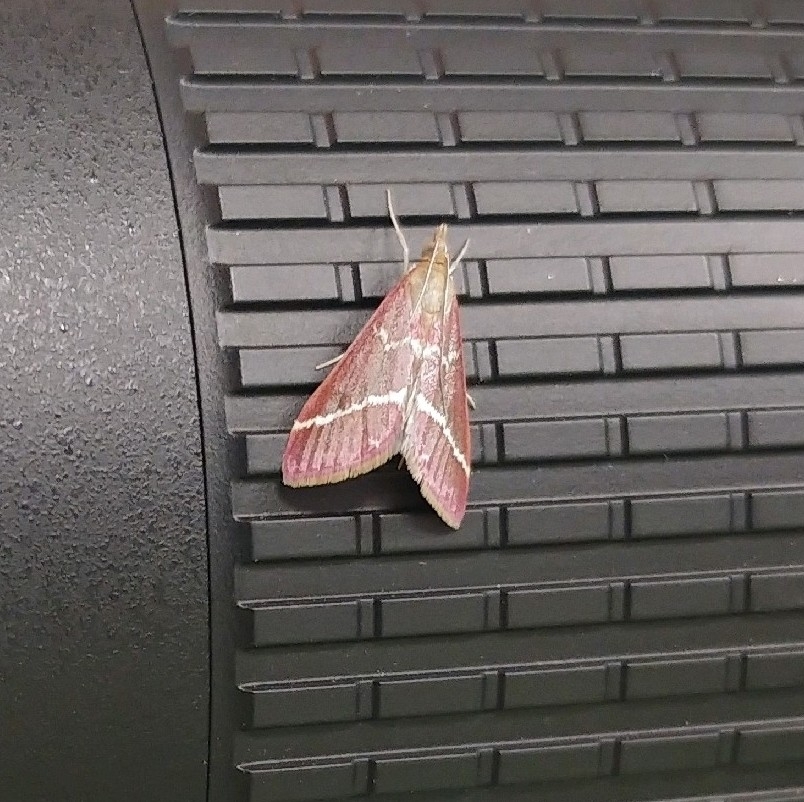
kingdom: Animalia
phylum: Arthropoda
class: Insecta
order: Lepidoptera
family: Crambidae
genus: Pyrausta
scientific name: Pyrausta volupialis
